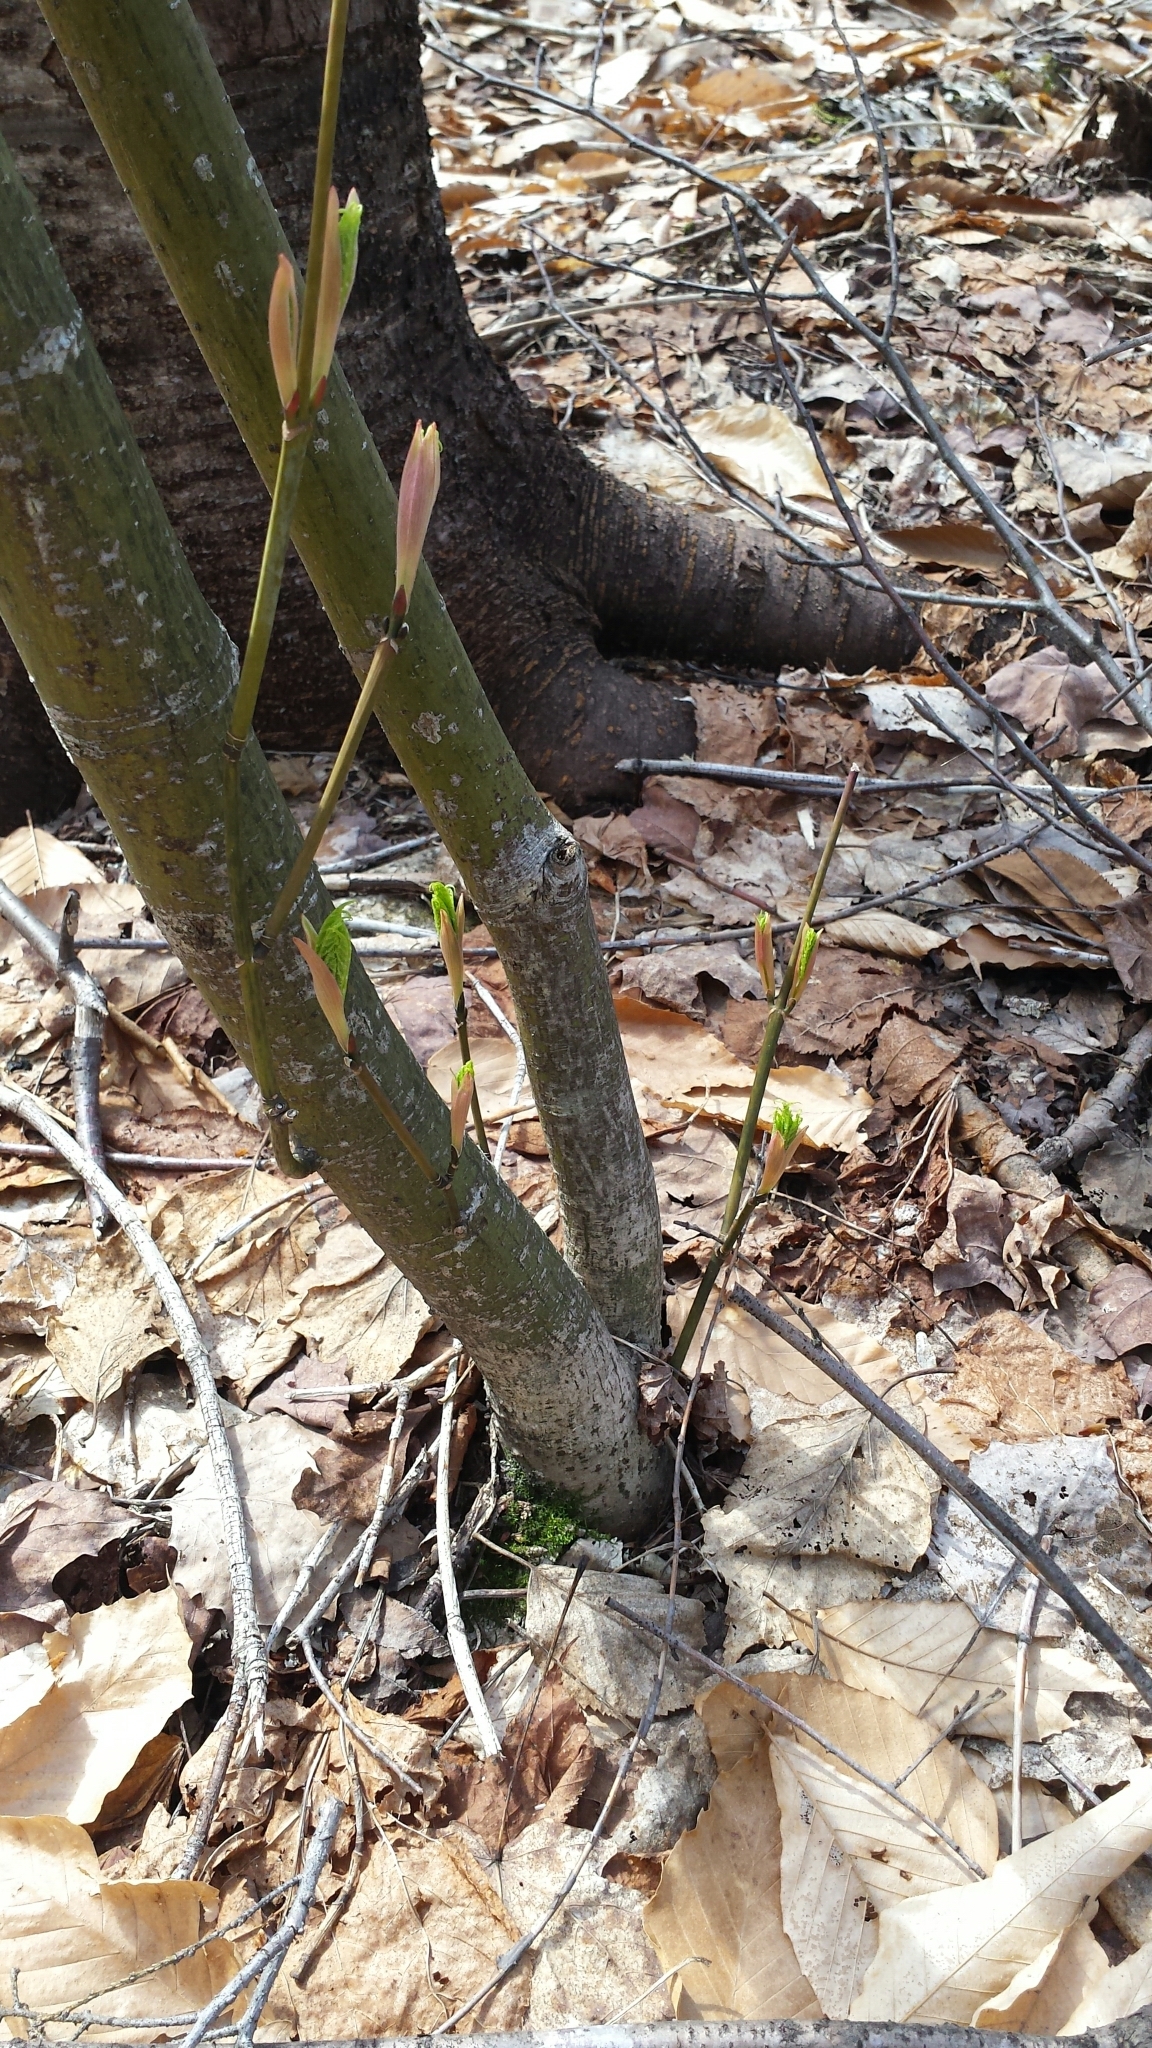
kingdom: Plantae
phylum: Tracheophyta
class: Magnoliopsida
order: Sapindales
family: Sapindaceae
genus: Acer
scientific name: Acer pensylvanicum
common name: Moosewood
